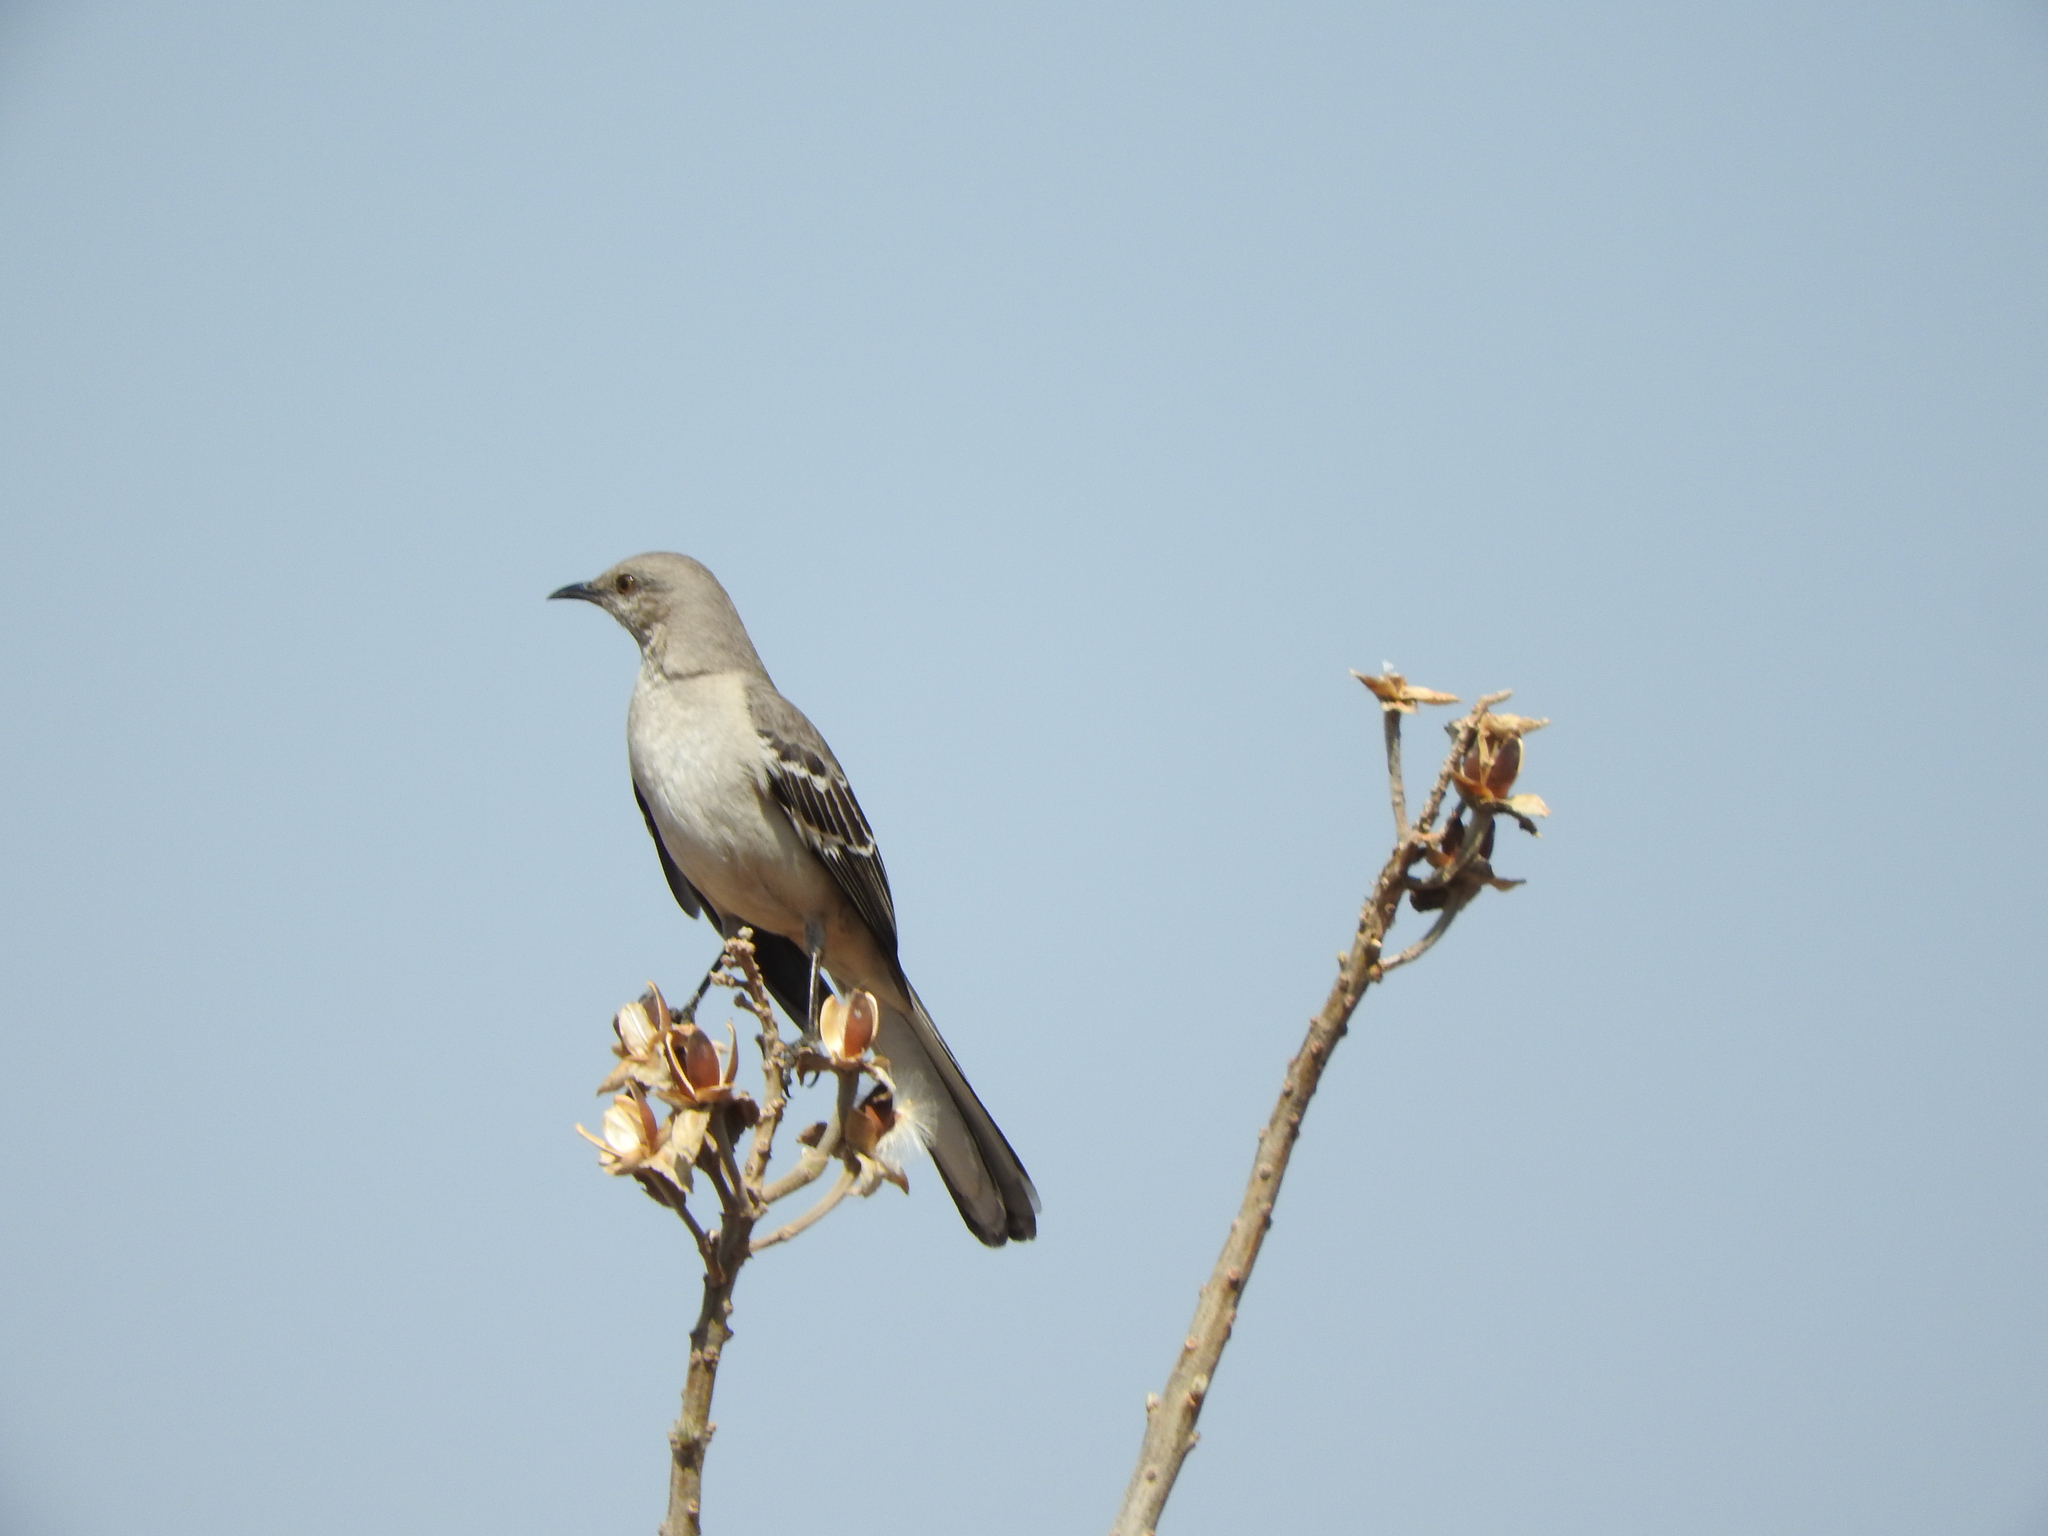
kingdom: Animalia
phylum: Chordata
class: Aves
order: Passeriformes
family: Mimidae
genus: Mimus
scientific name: Mimus polyglottos
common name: Northern mockingbird
